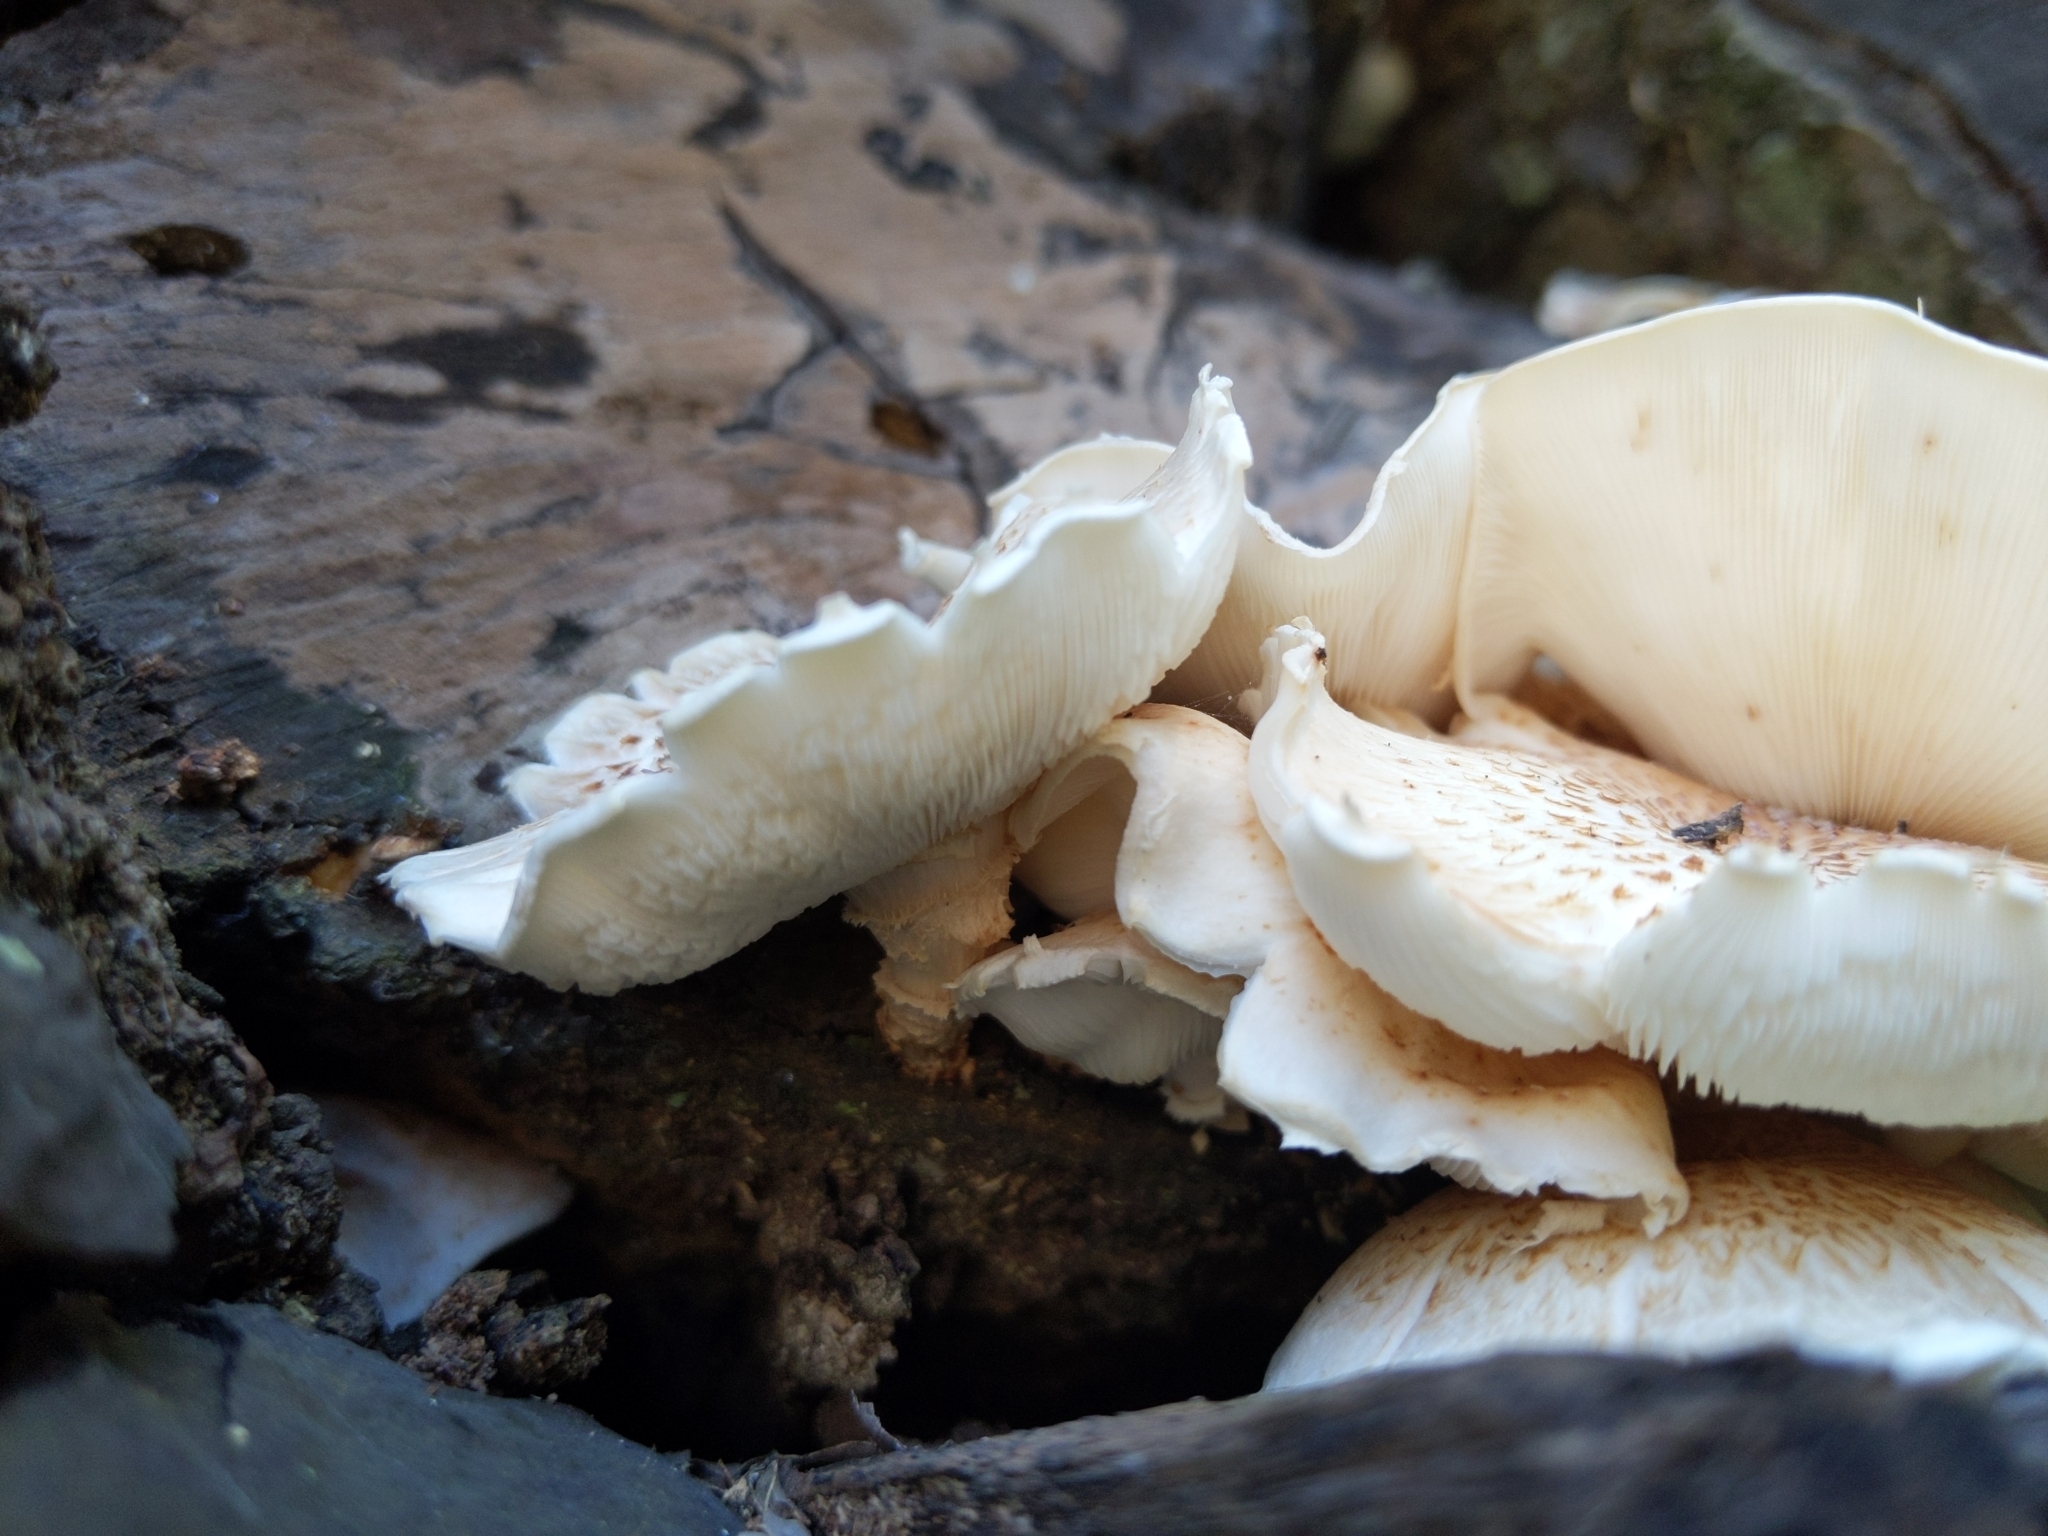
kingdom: Fungi
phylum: Basidiomycota
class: Agaricomycetes
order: Gloeophyllales
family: Gloeophyllaceae
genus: Neolentinus
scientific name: Neolentinus lepideus
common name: Scaly sawgill
